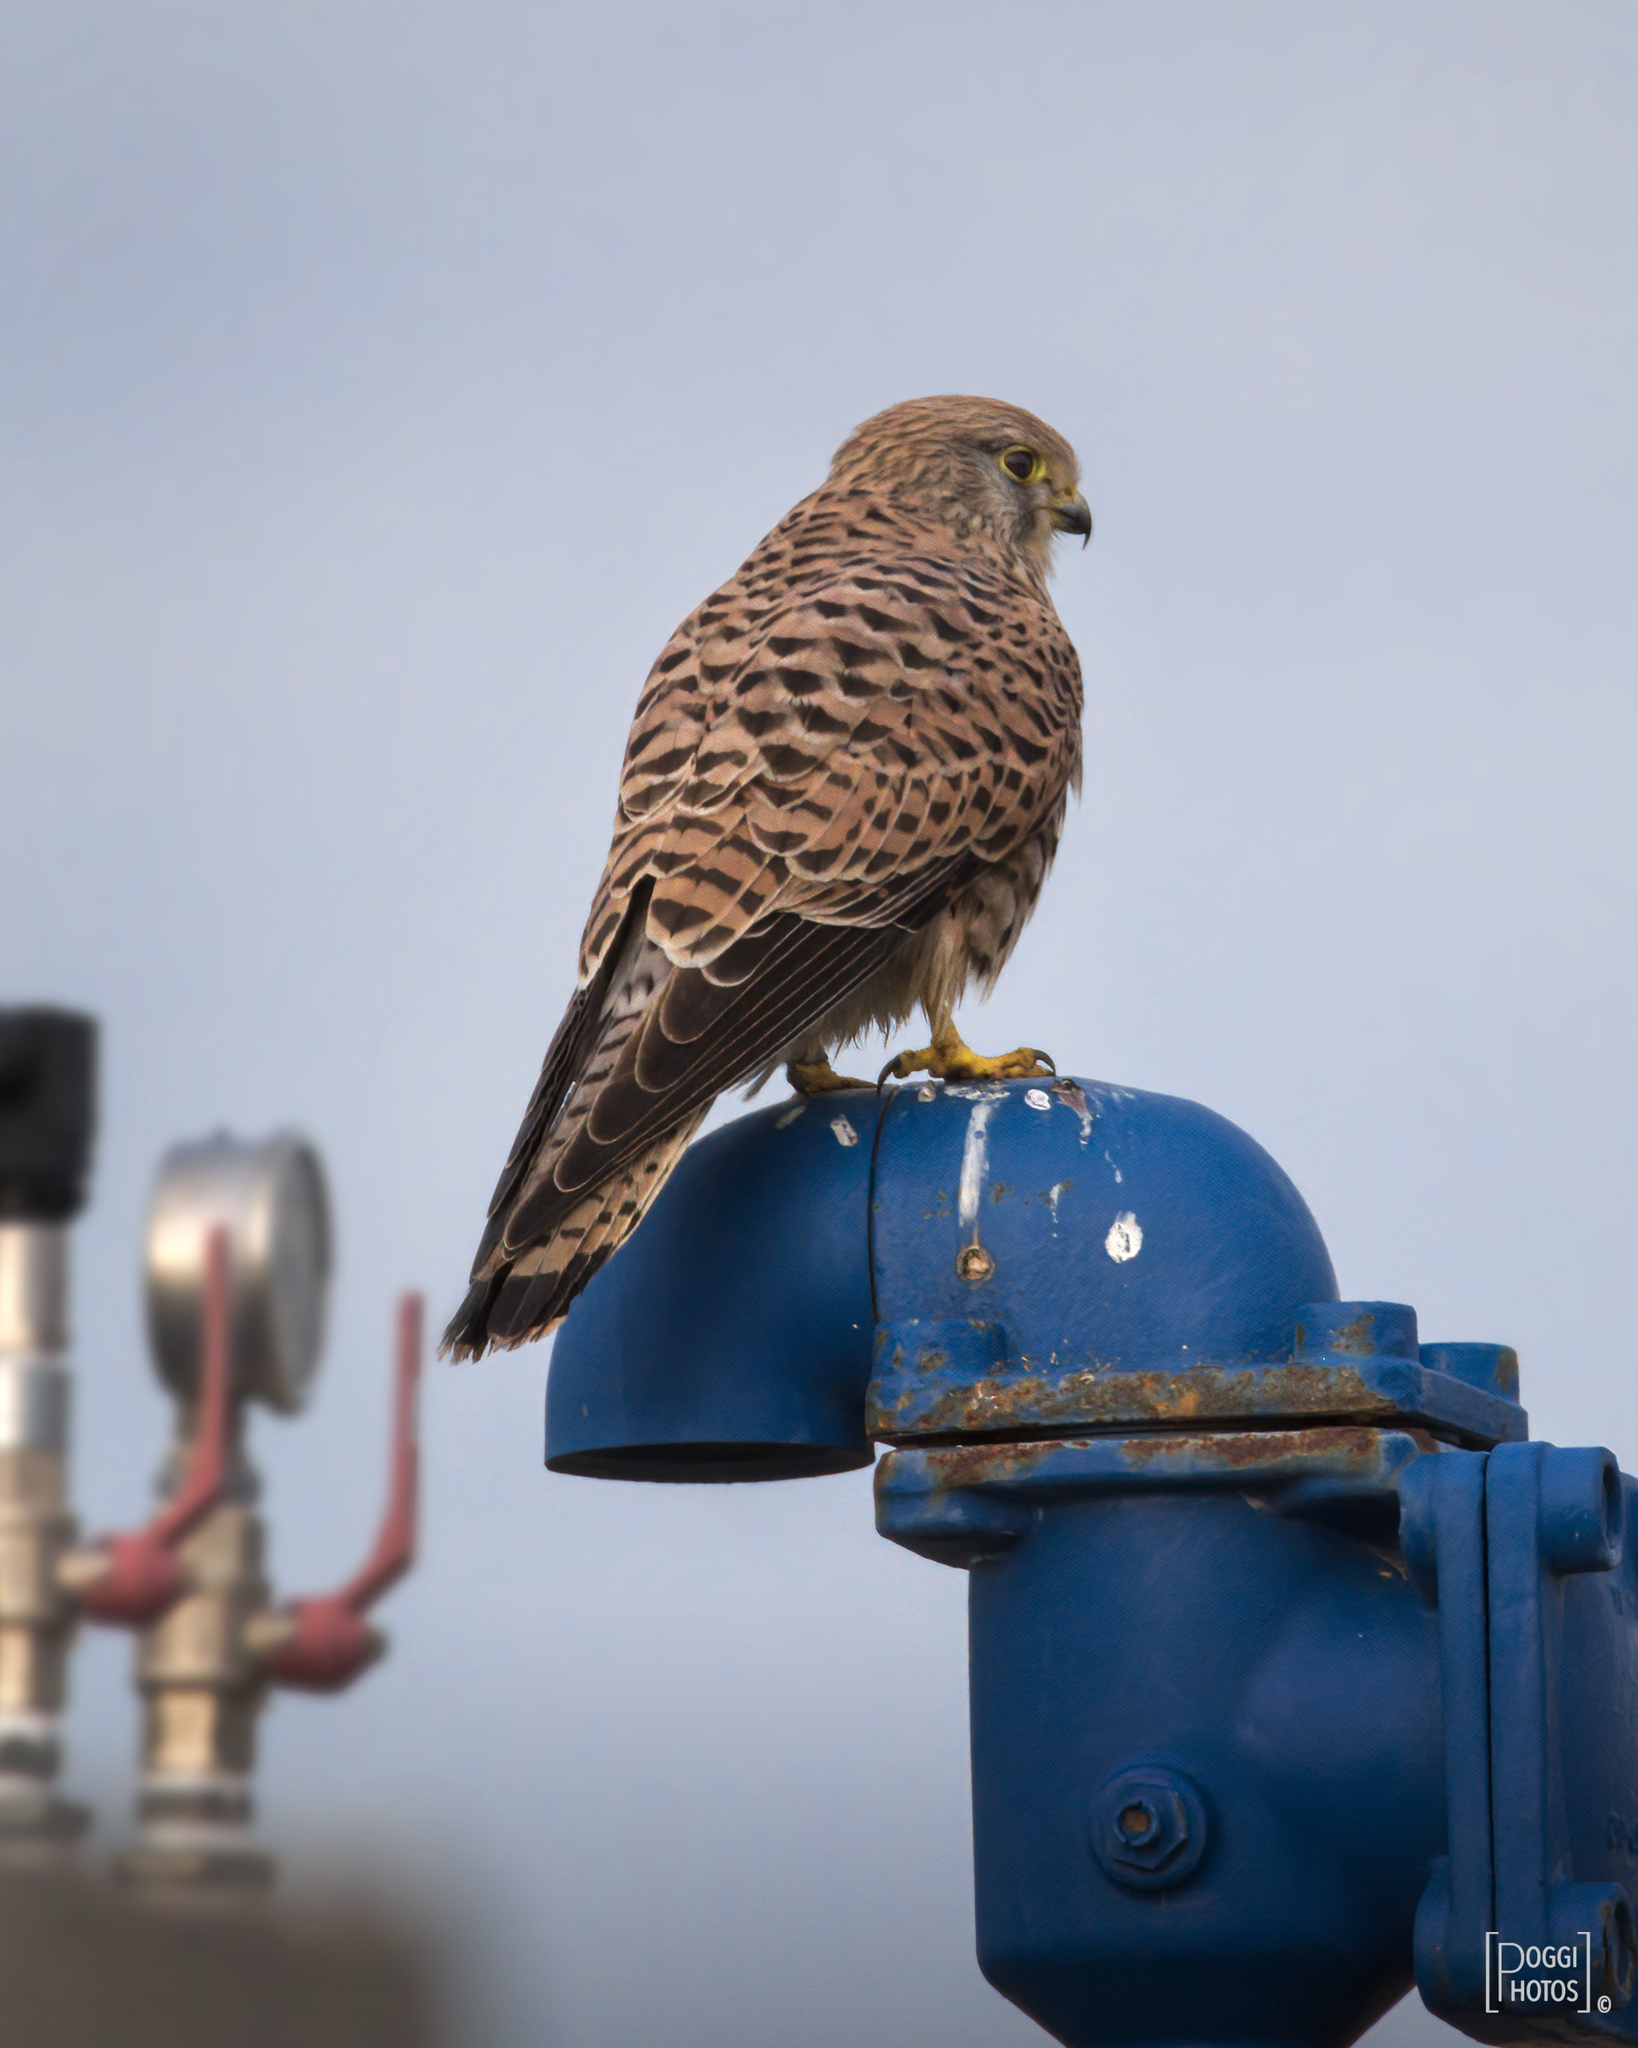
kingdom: Animalia
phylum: Chordata
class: Aves
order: Falconiformes
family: Falconidae
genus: Falco
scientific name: Falco tinnunculus
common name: Common kestrel
